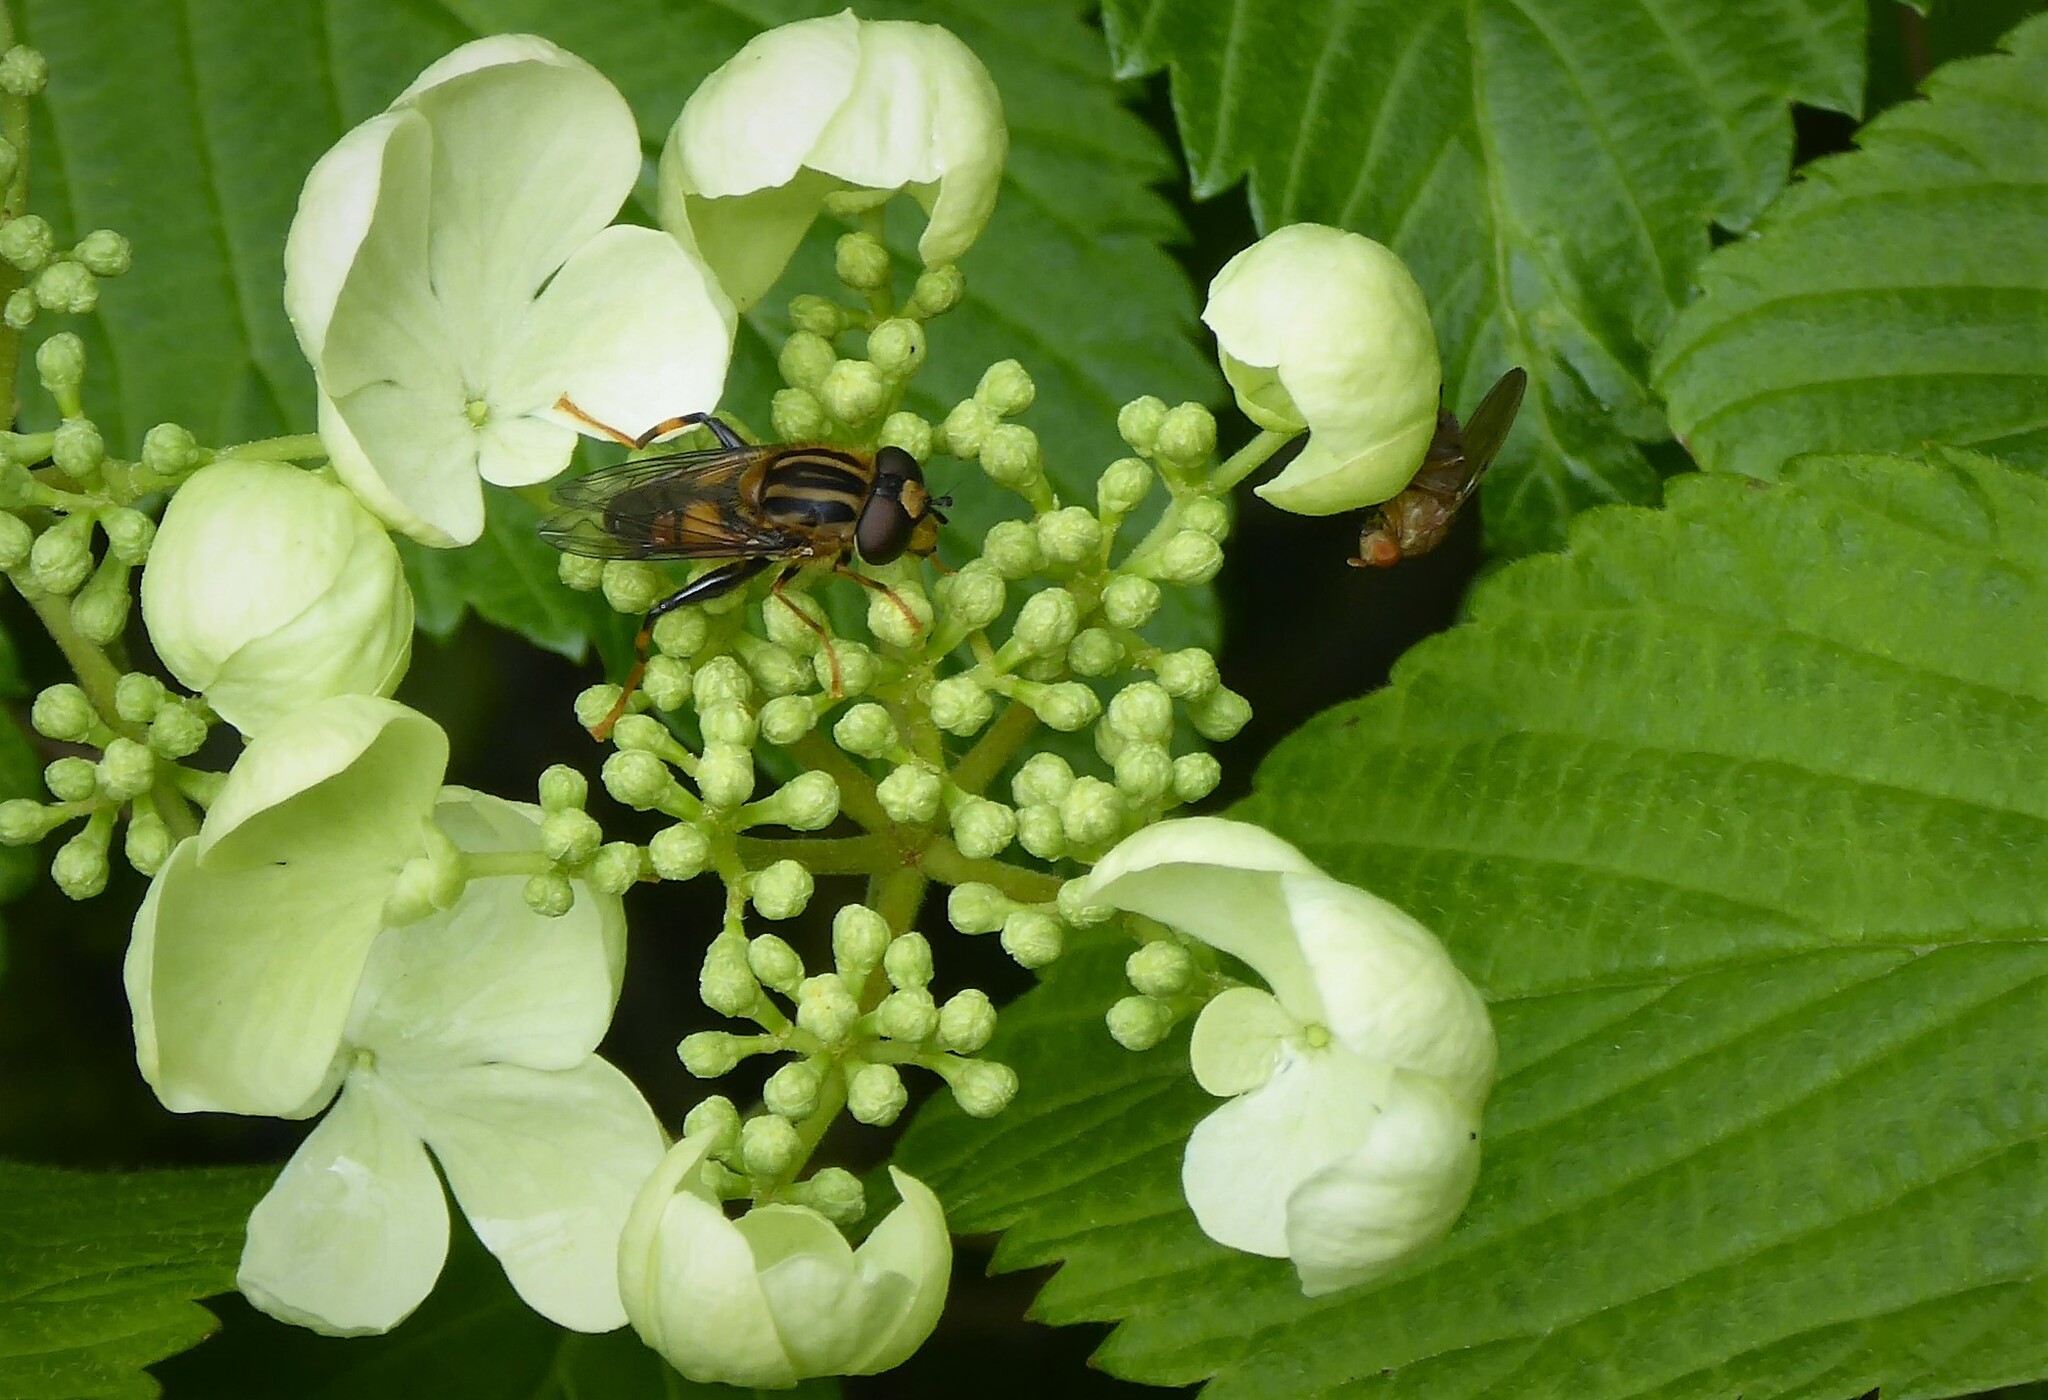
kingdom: Animalia
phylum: Arthropoda
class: Insecta
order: Diptera
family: Syrphidae
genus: Helophilus
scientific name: Helophilus antipodus
